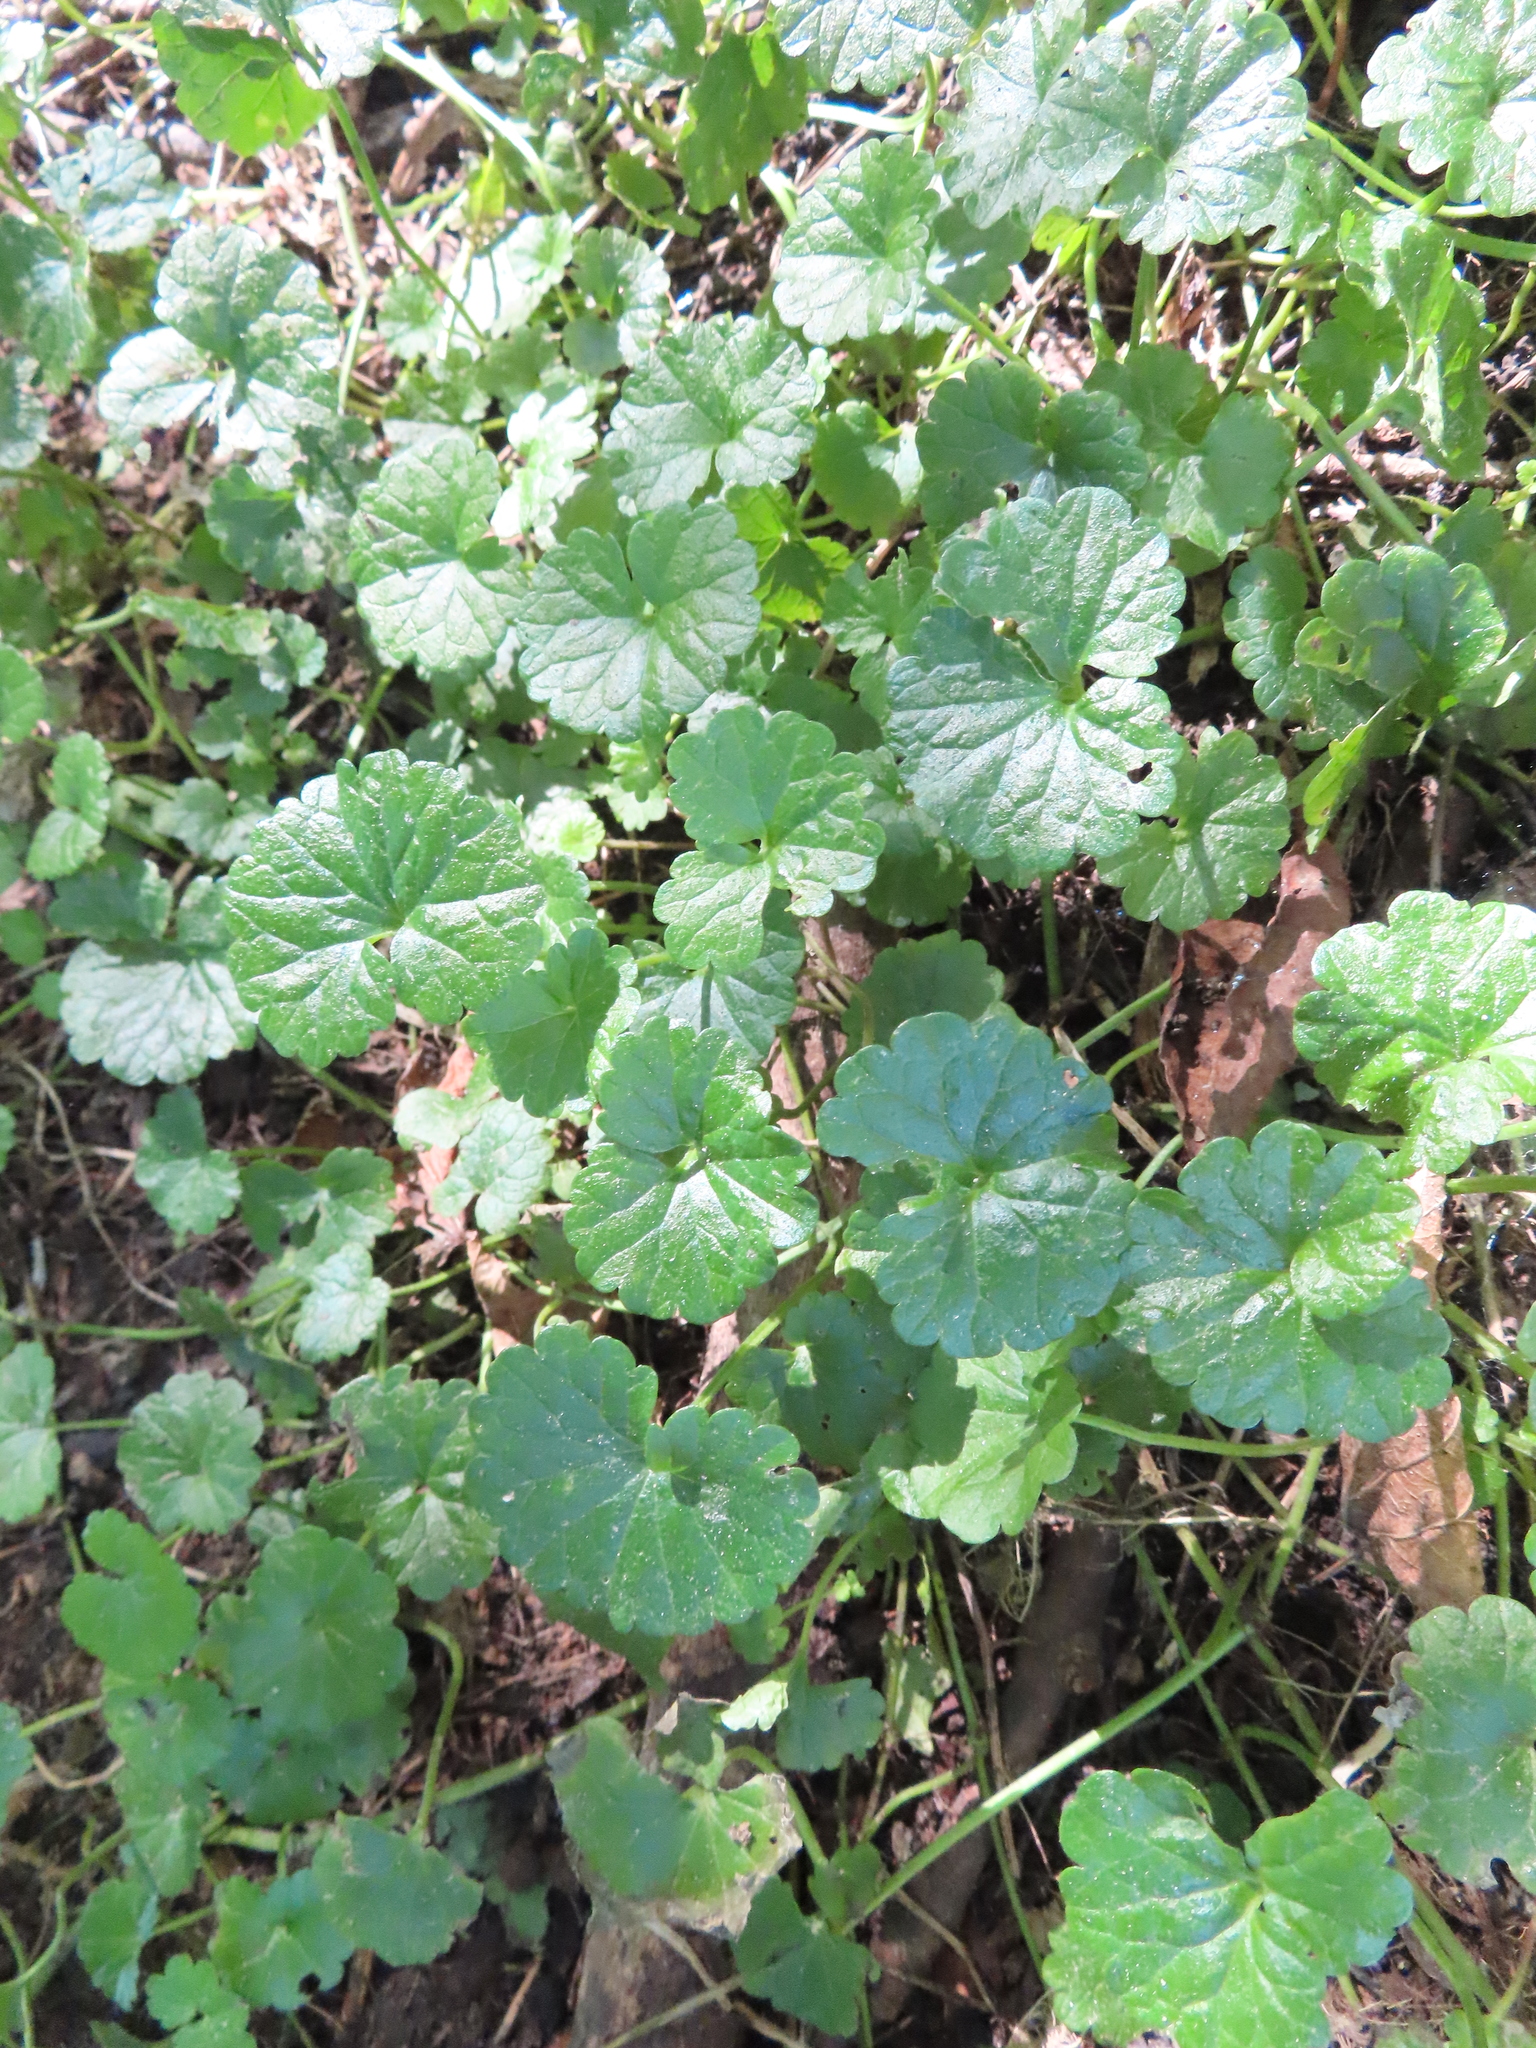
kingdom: Plantae
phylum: Tracheophyta
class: Magnoliopsida
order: Lamiales
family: Lamiaceae
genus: Glechoma
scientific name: Glechoma hederacea
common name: Ground ivy
